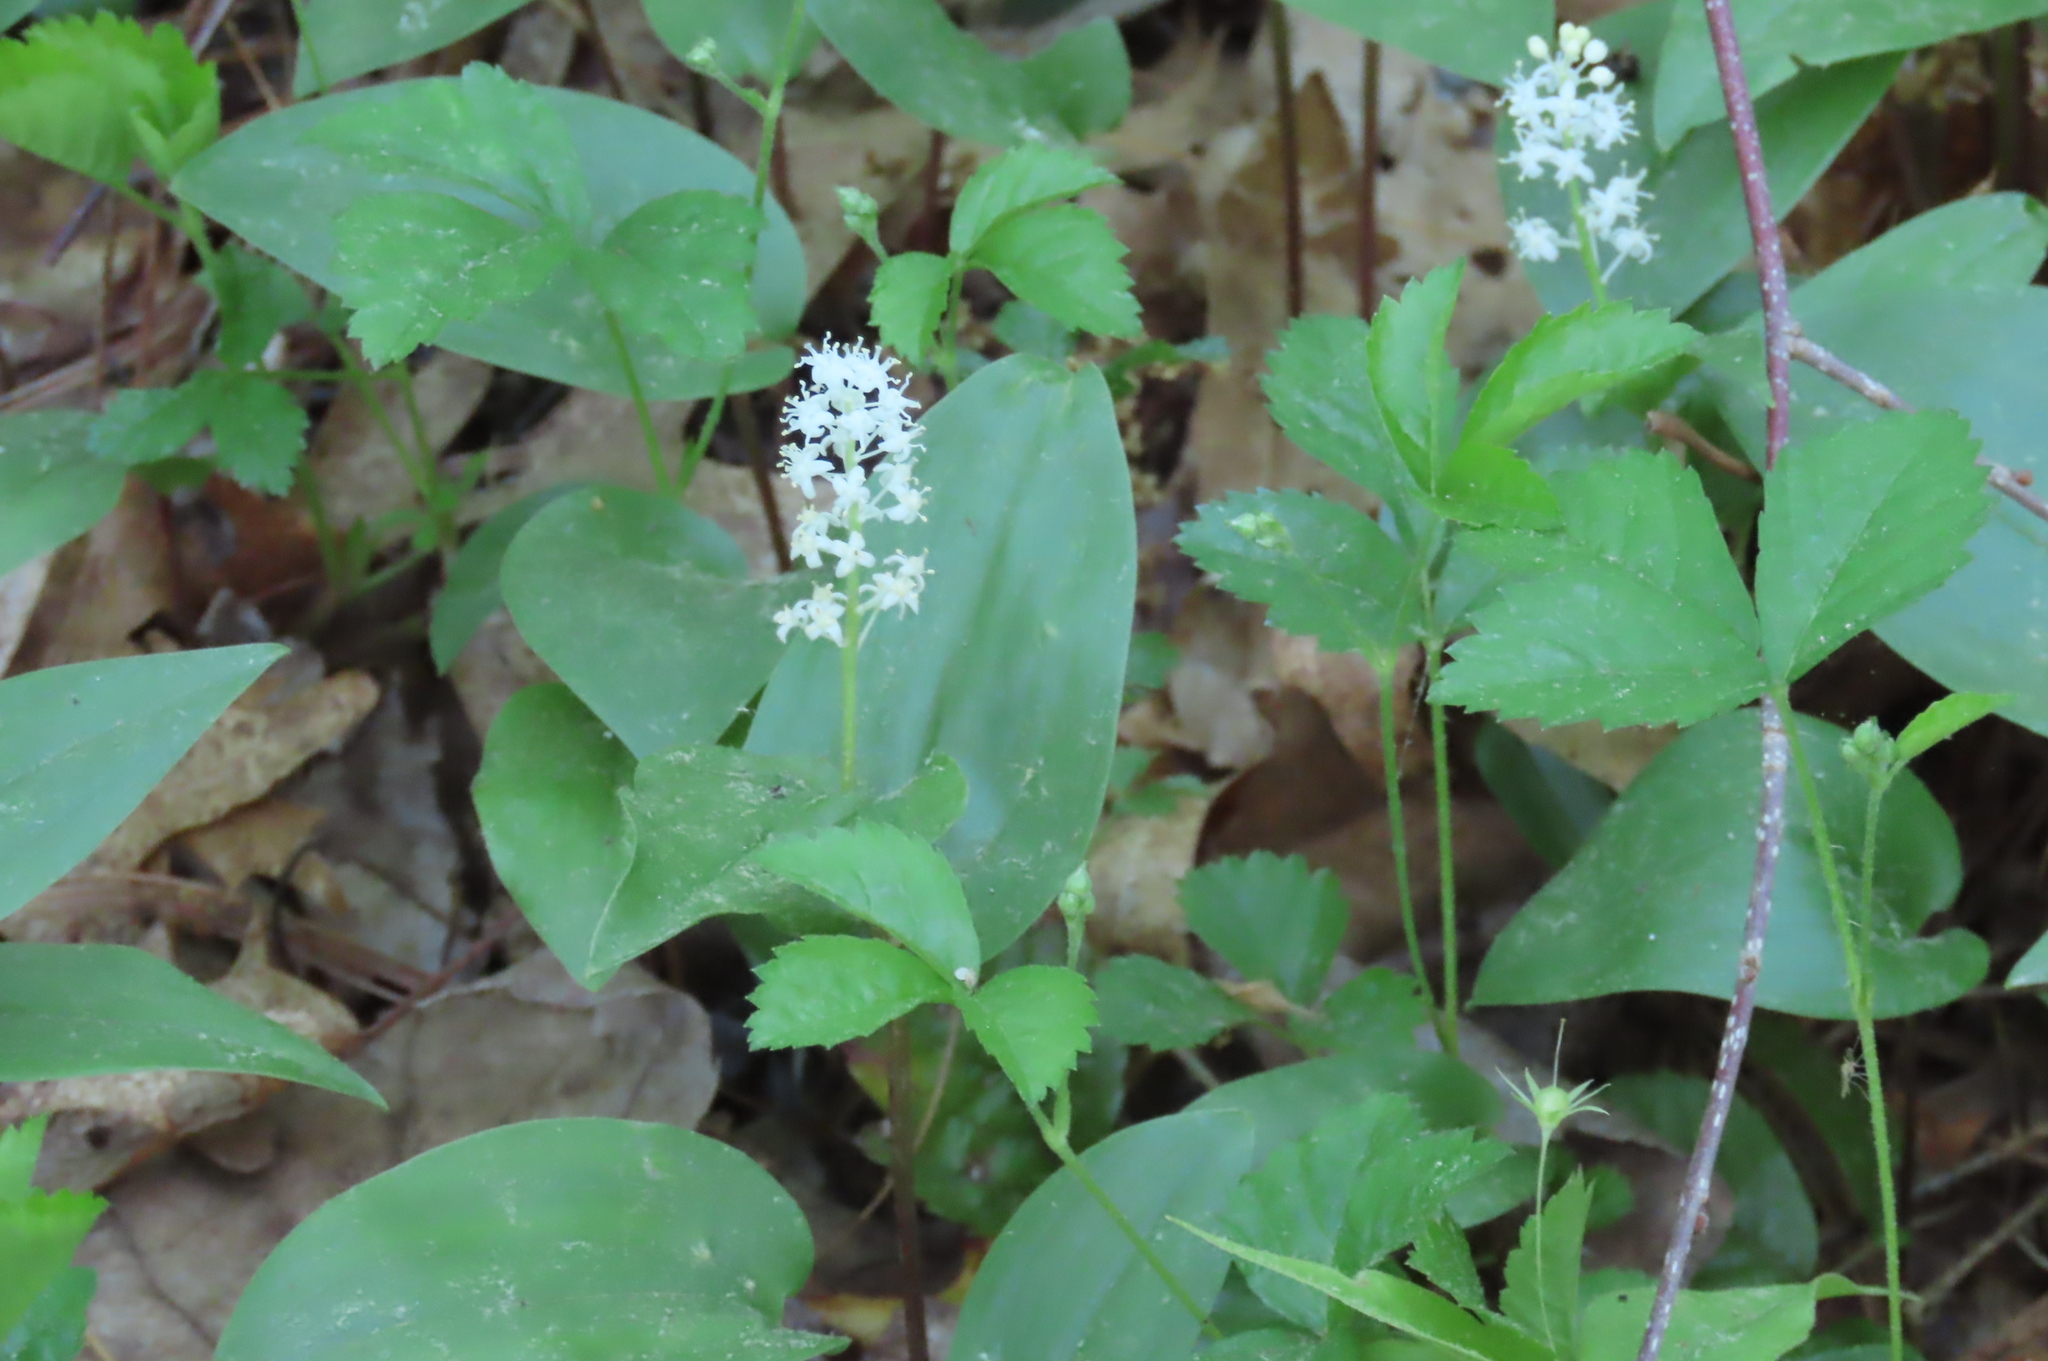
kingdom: Plantae
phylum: Tracheophyta
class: Liliopsida
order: Asparagales
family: Asparagaceae
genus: Maianthemum
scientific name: Maianthemum canadense
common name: False lily-of-the-valley
